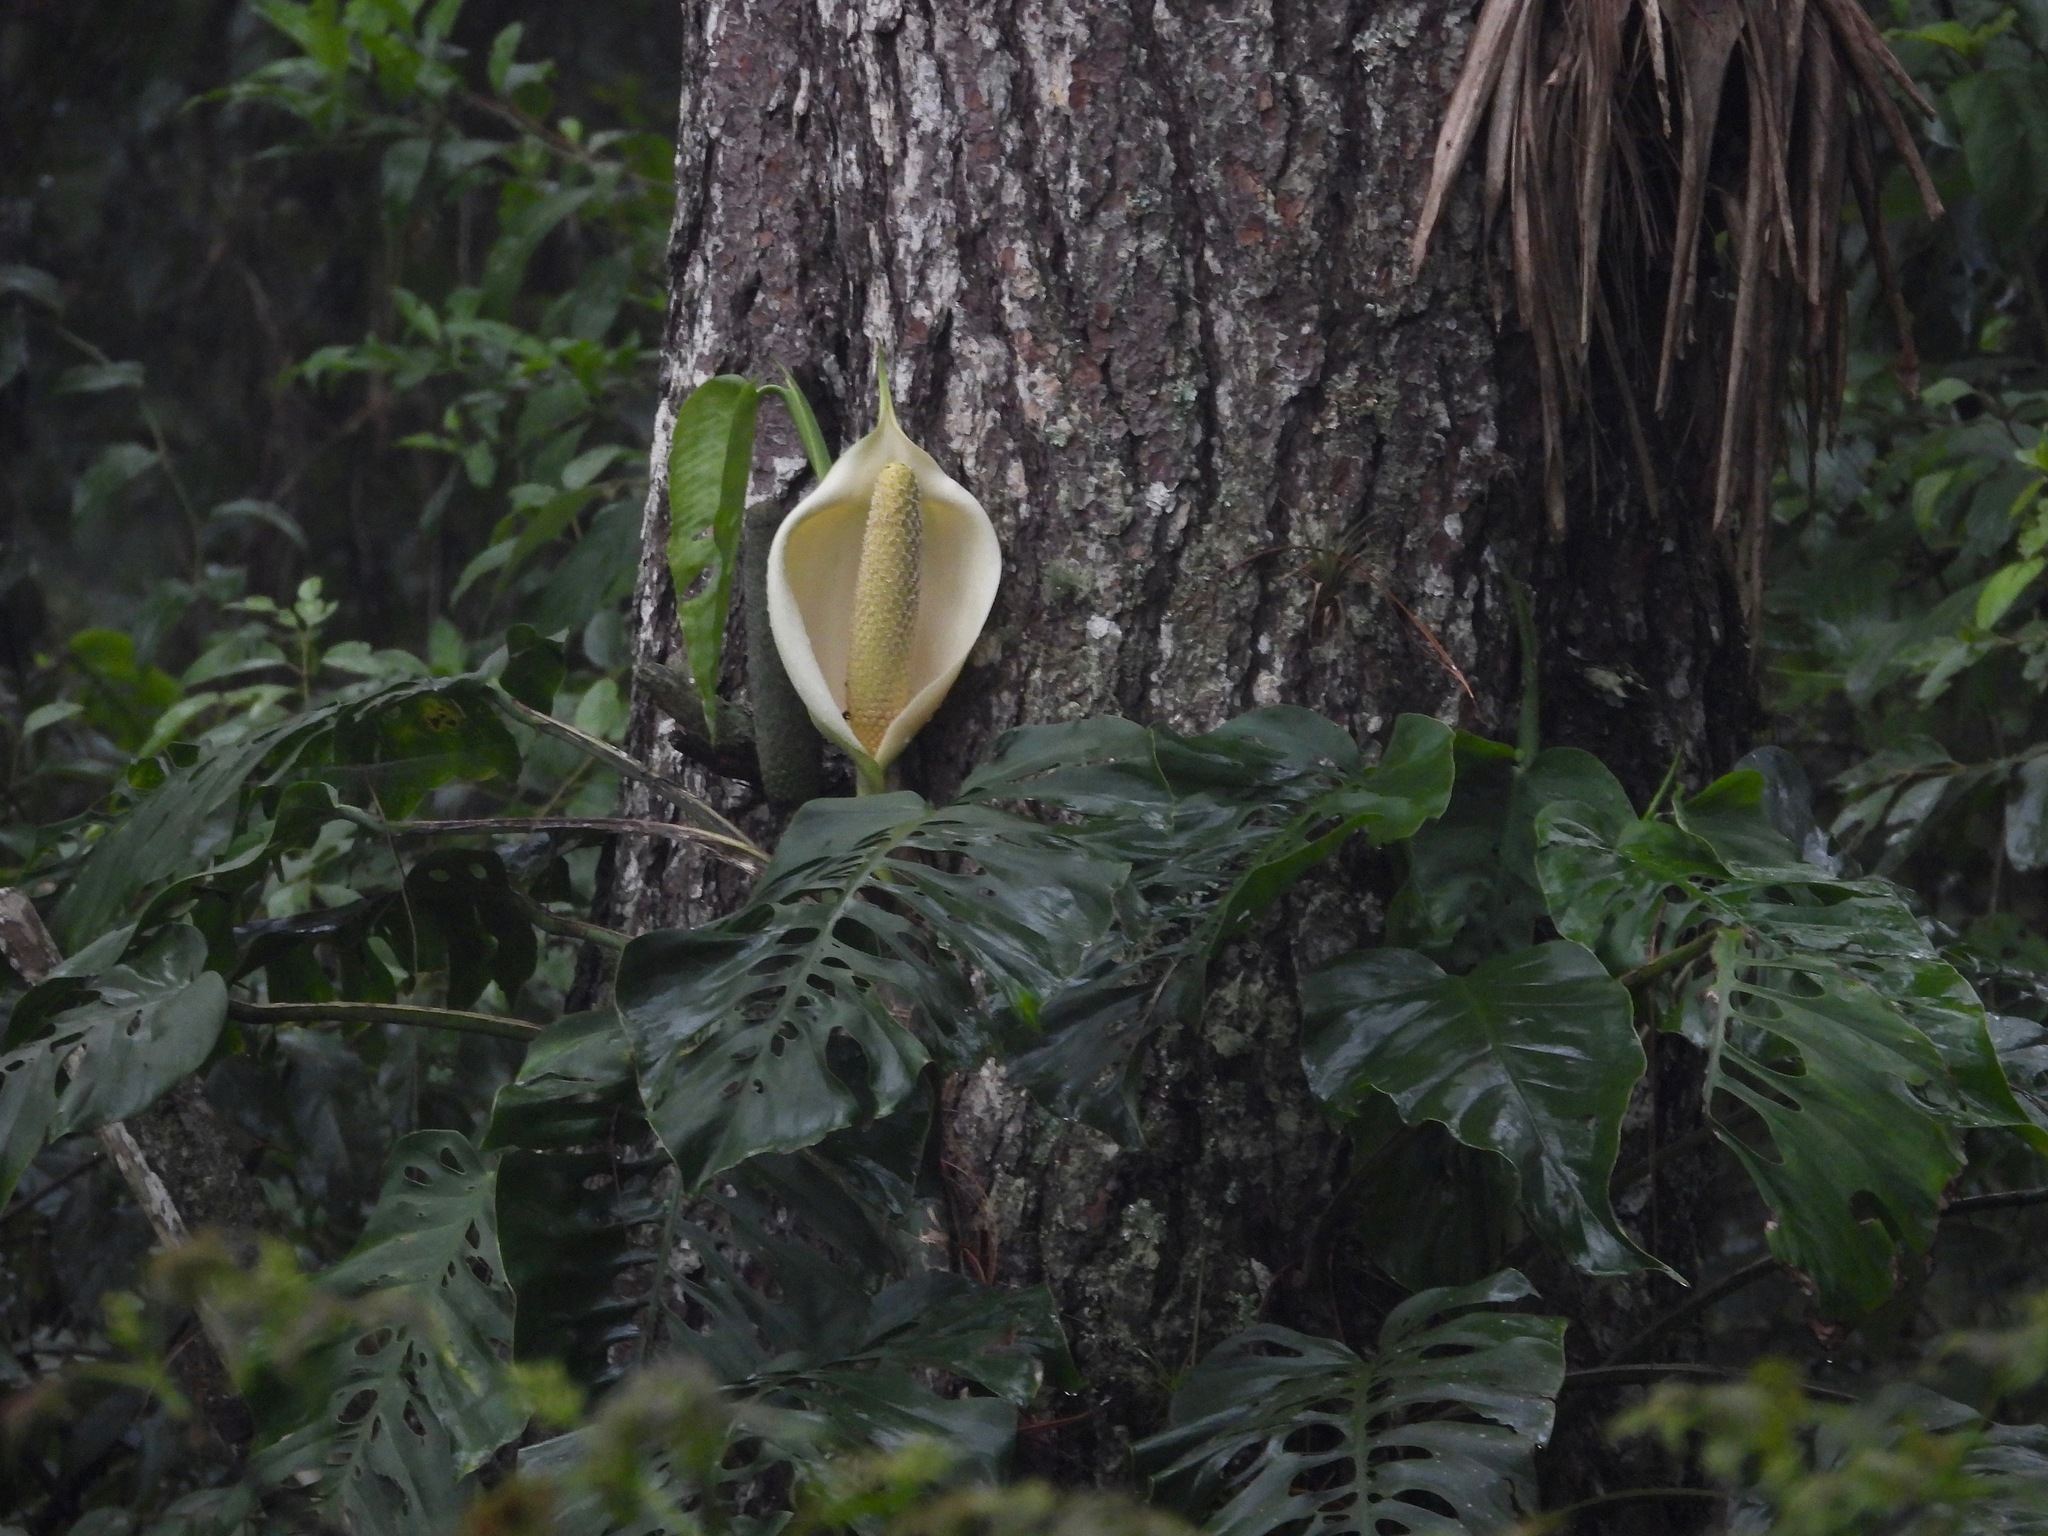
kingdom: Plantae
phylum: Tracheophyta
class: Liliopsida
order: Alismatales
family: Araceae
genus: Monstera
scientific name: Monstera siltepecana
